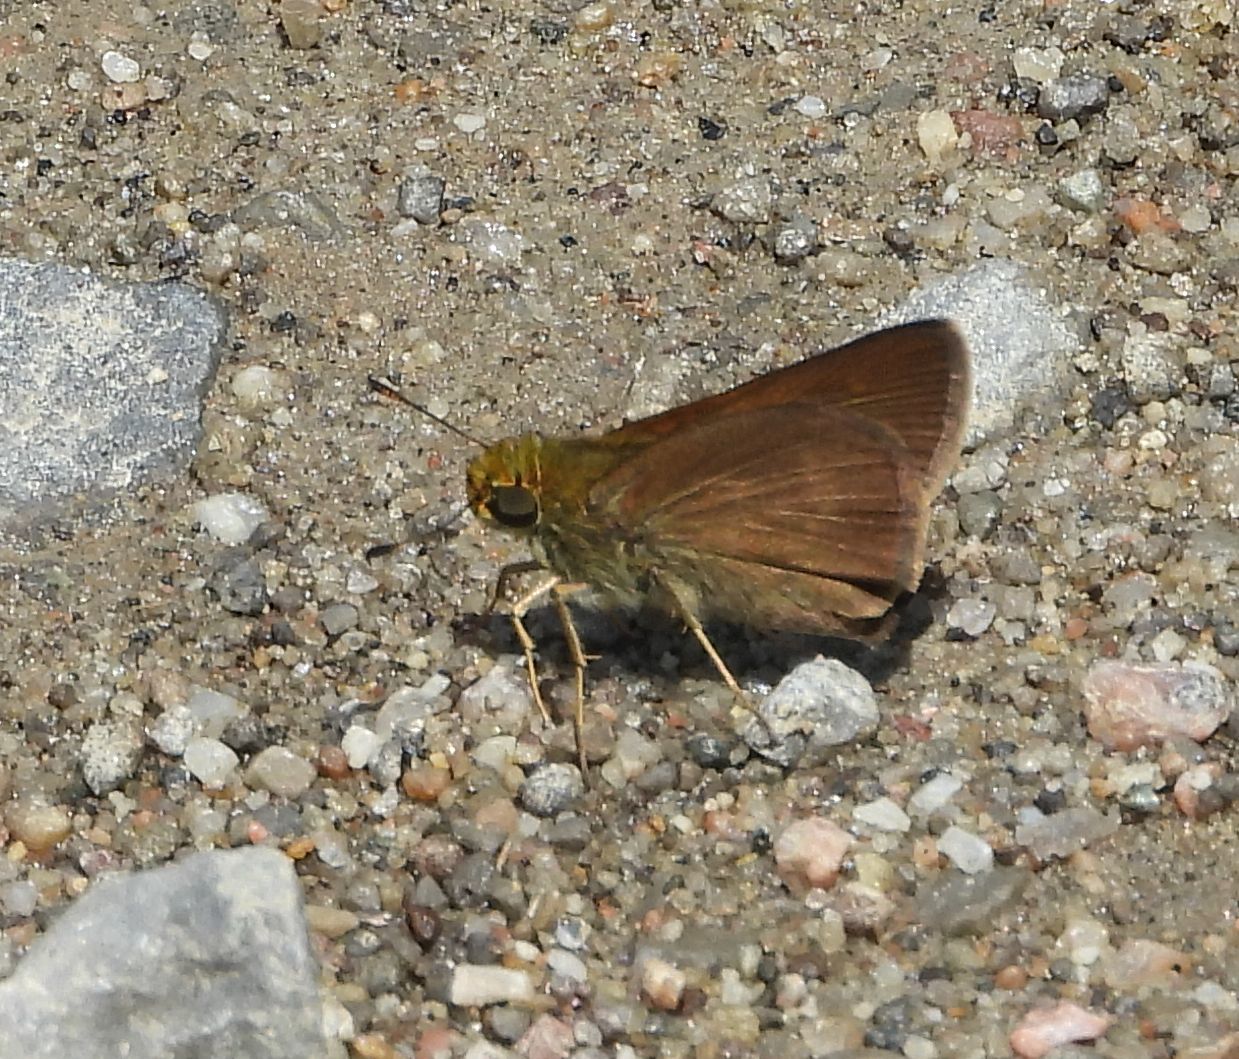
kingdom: Animalia
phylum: Arthropoda
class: Insecta
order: Lepidoptera
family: Hesperiidae
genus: Euphyes
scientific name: Euphyes vestris
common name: Dun skipper
